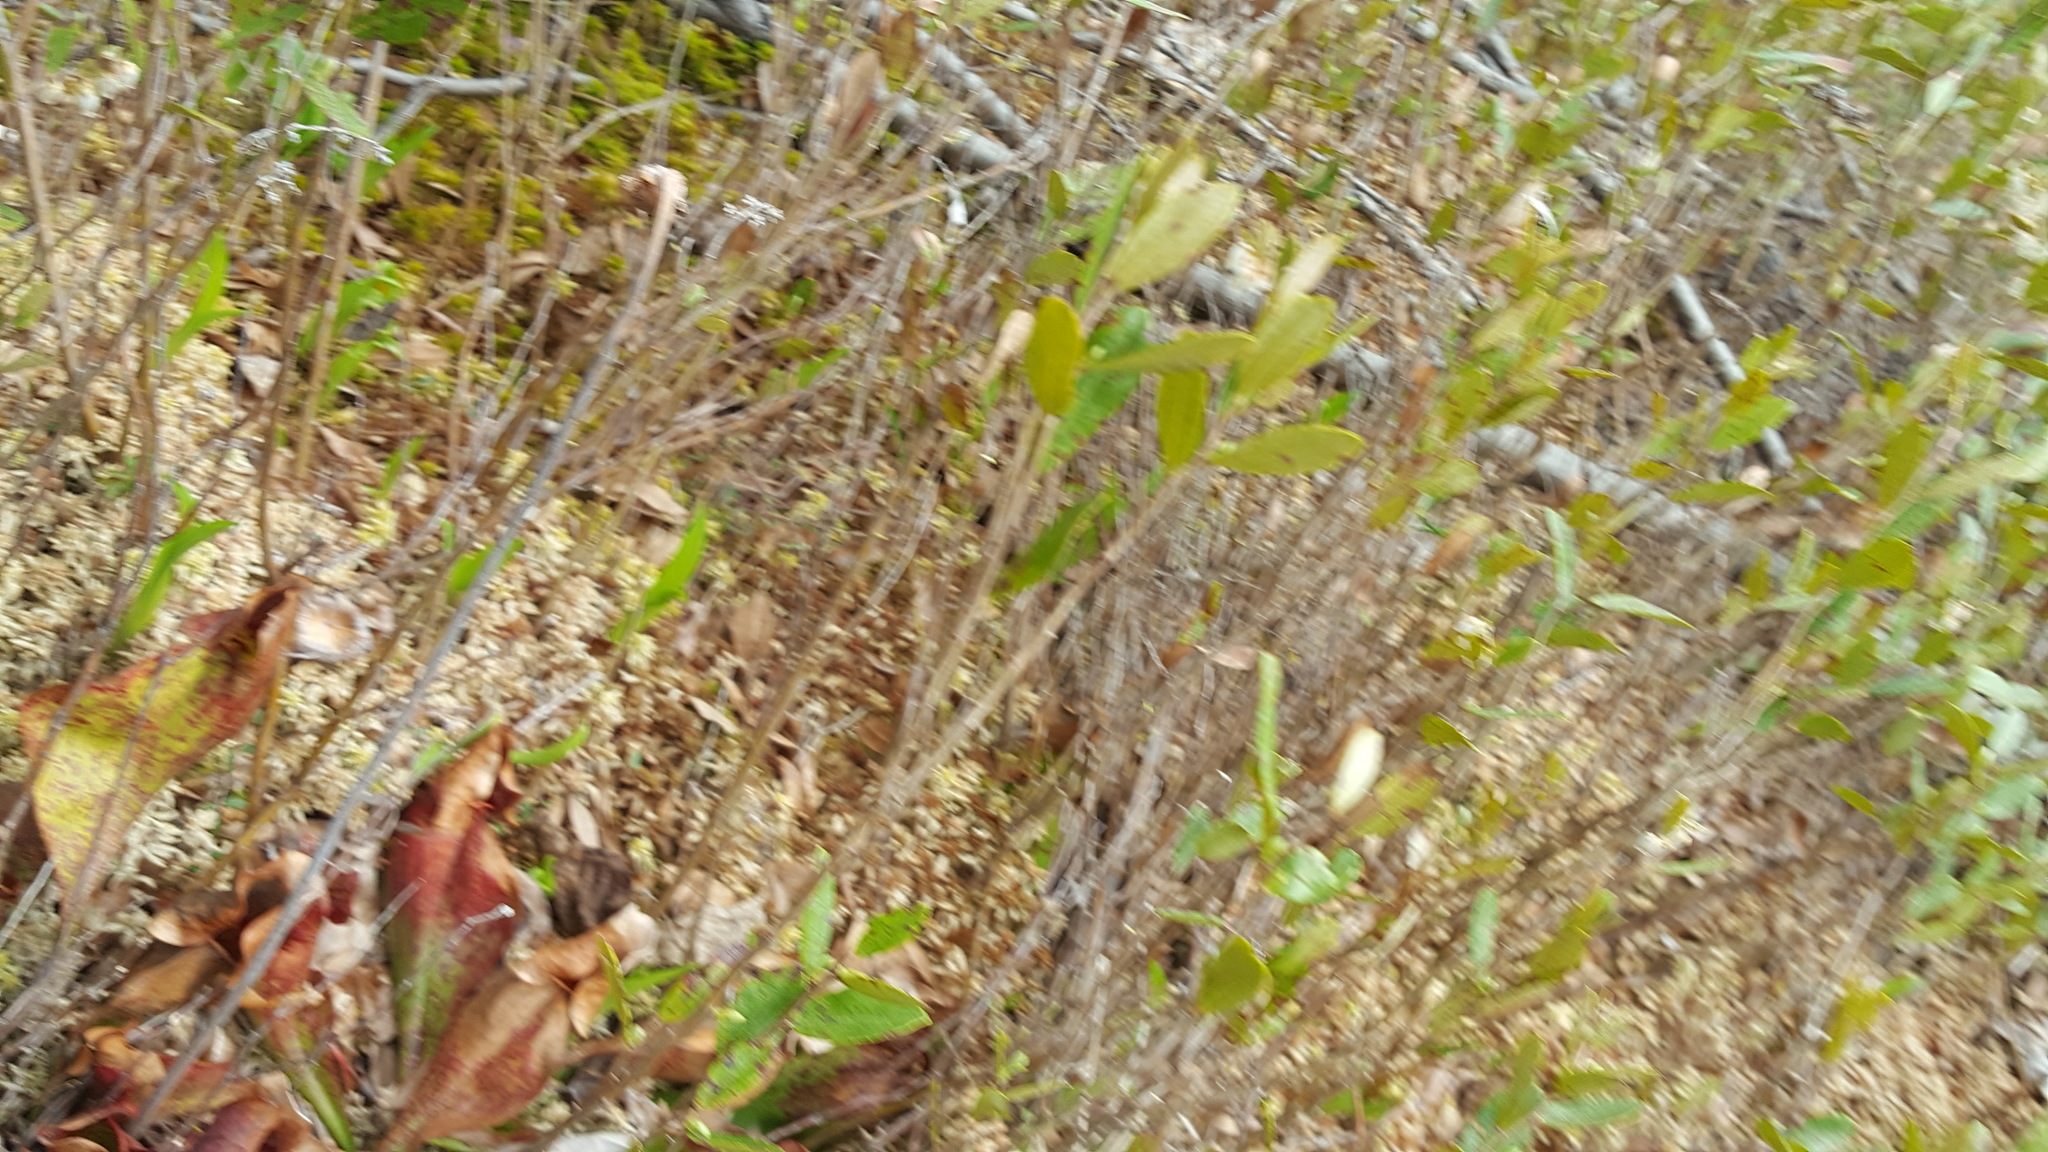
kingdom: Plantae
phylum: Tracheophyta
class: Magnoliopsida
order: Ericales
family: Sarraceniaceae
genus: Sarracenia
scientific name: Sarracenia purpurea
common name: Pitcherplant
